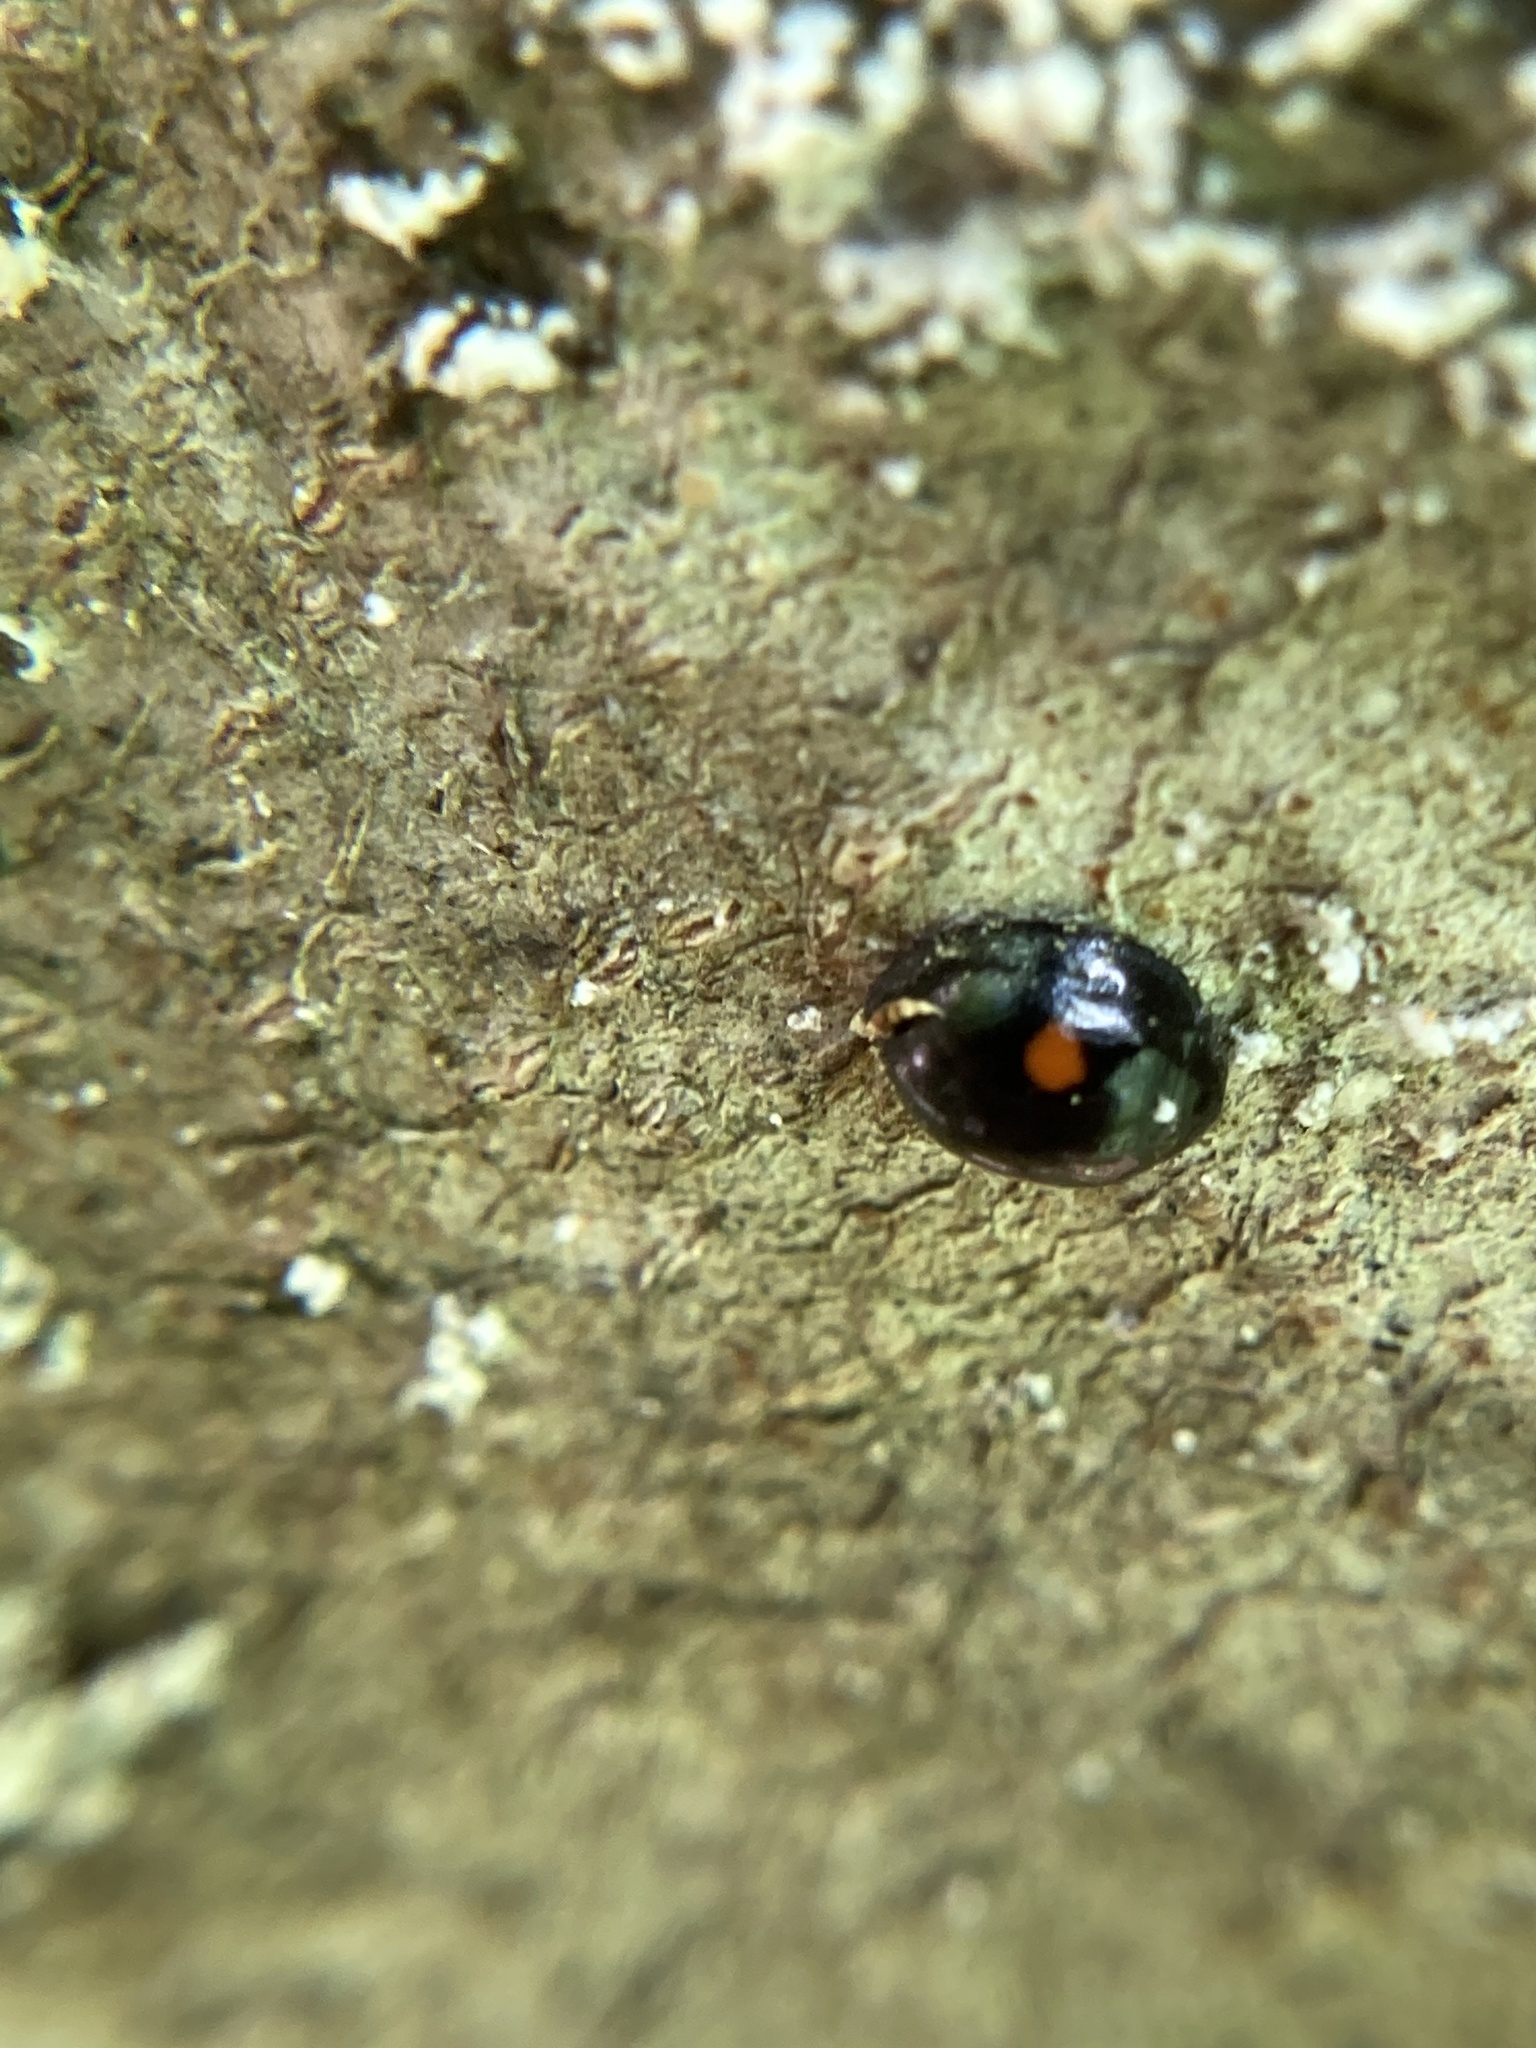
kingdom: Animalia
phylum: Arthropoda
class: Insecta
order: Coleoptera
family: Coccinellidae
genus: Chilocorus
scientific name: Chilocorus stigma
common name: Twicestabbed lady beetle
